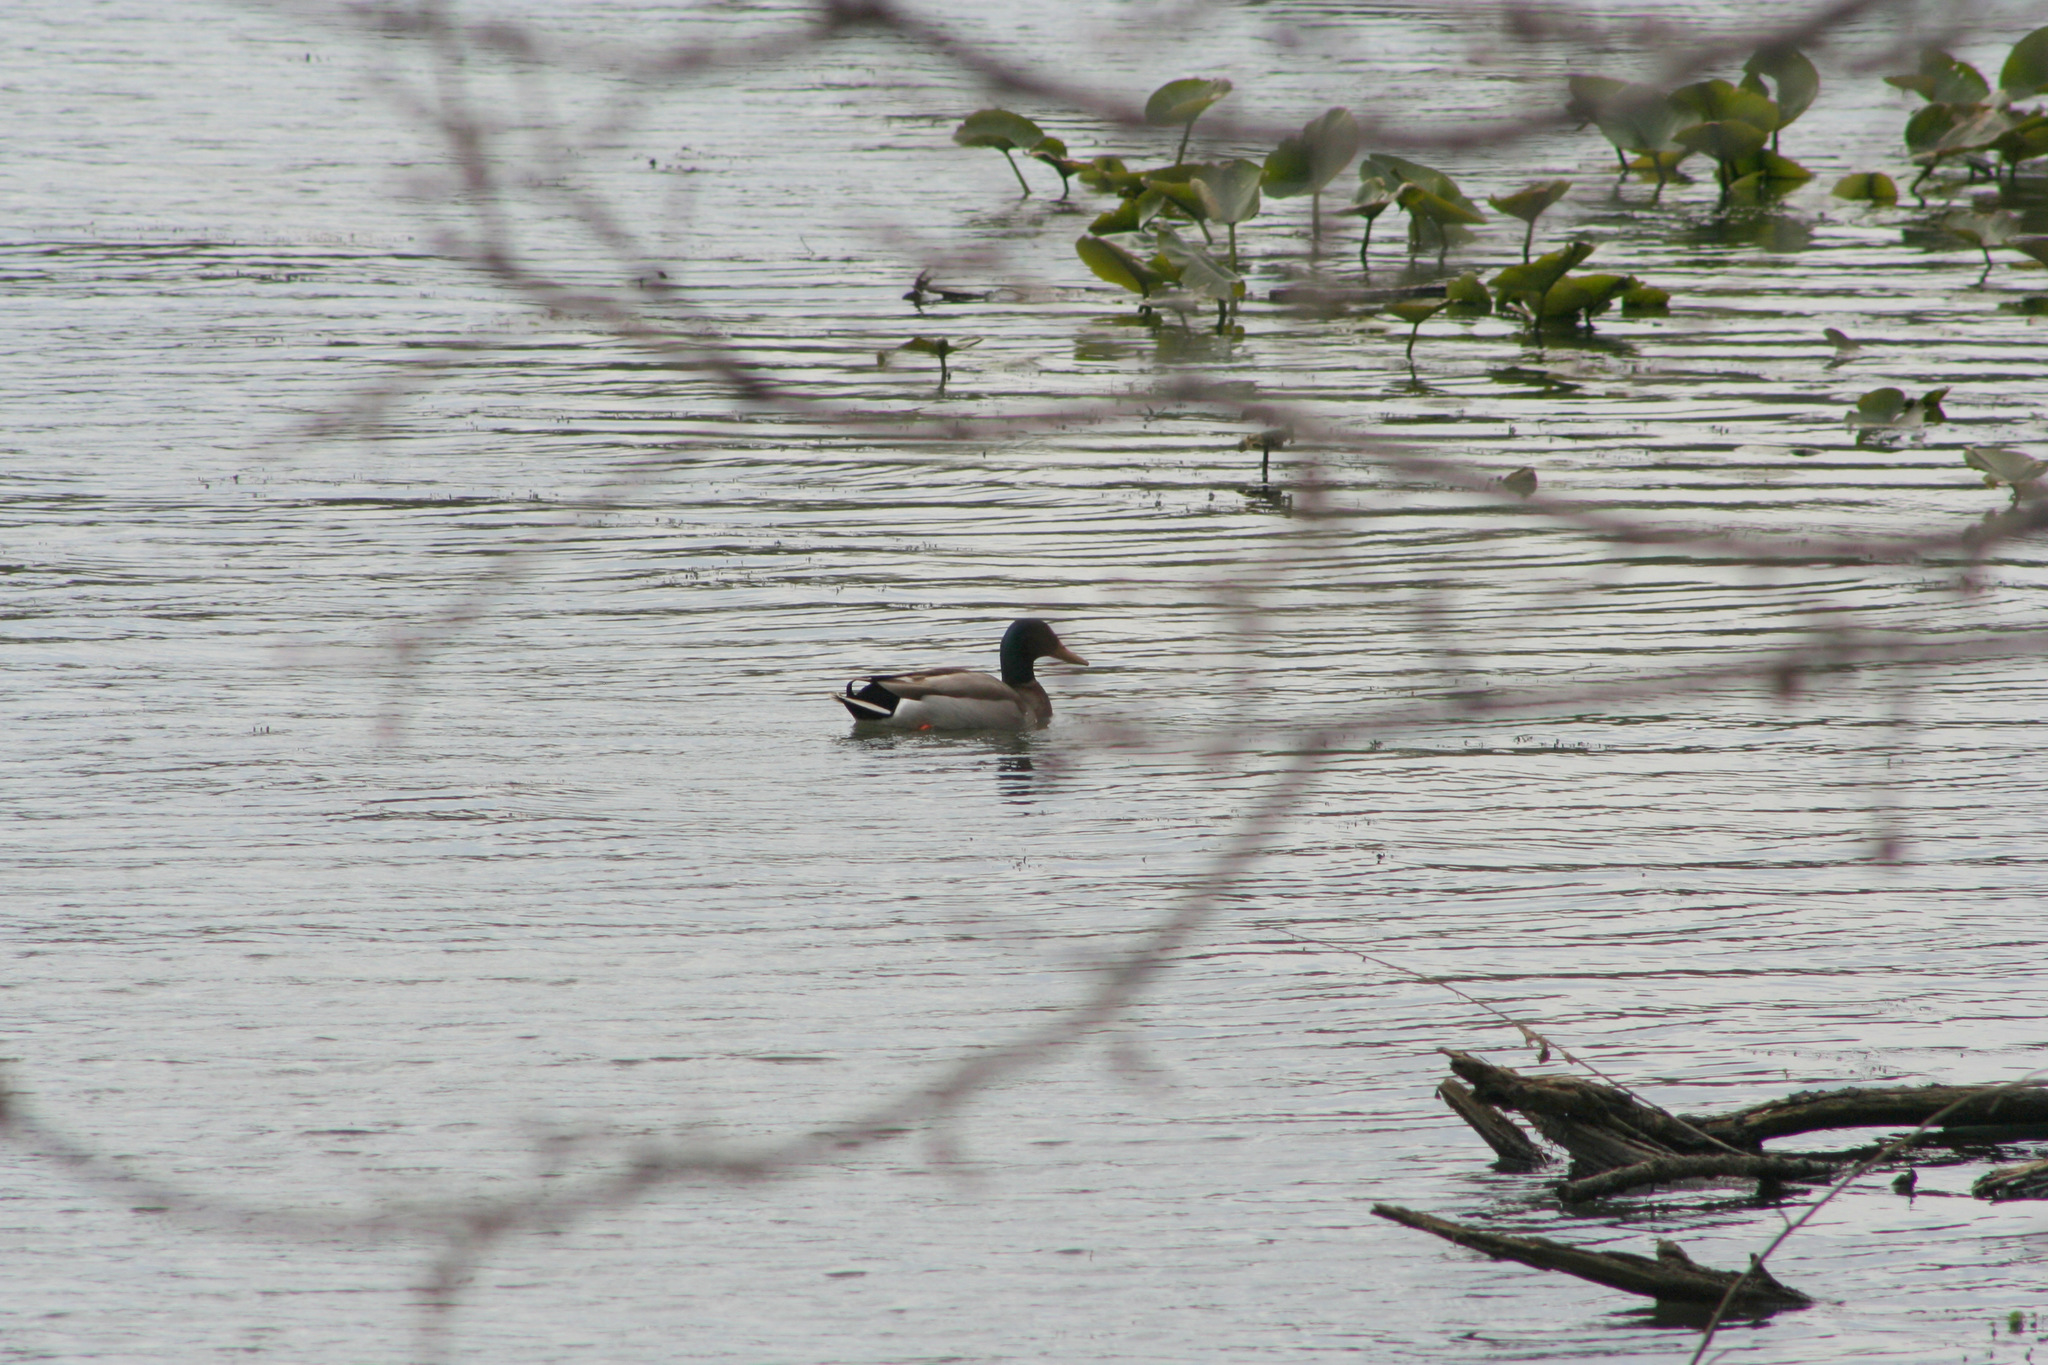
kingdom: Animalia
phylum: Chordata
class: Aves
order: Anseriformes
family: Anatidae
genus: Anas
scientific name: Anas platyrhynchos
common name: Mallard
